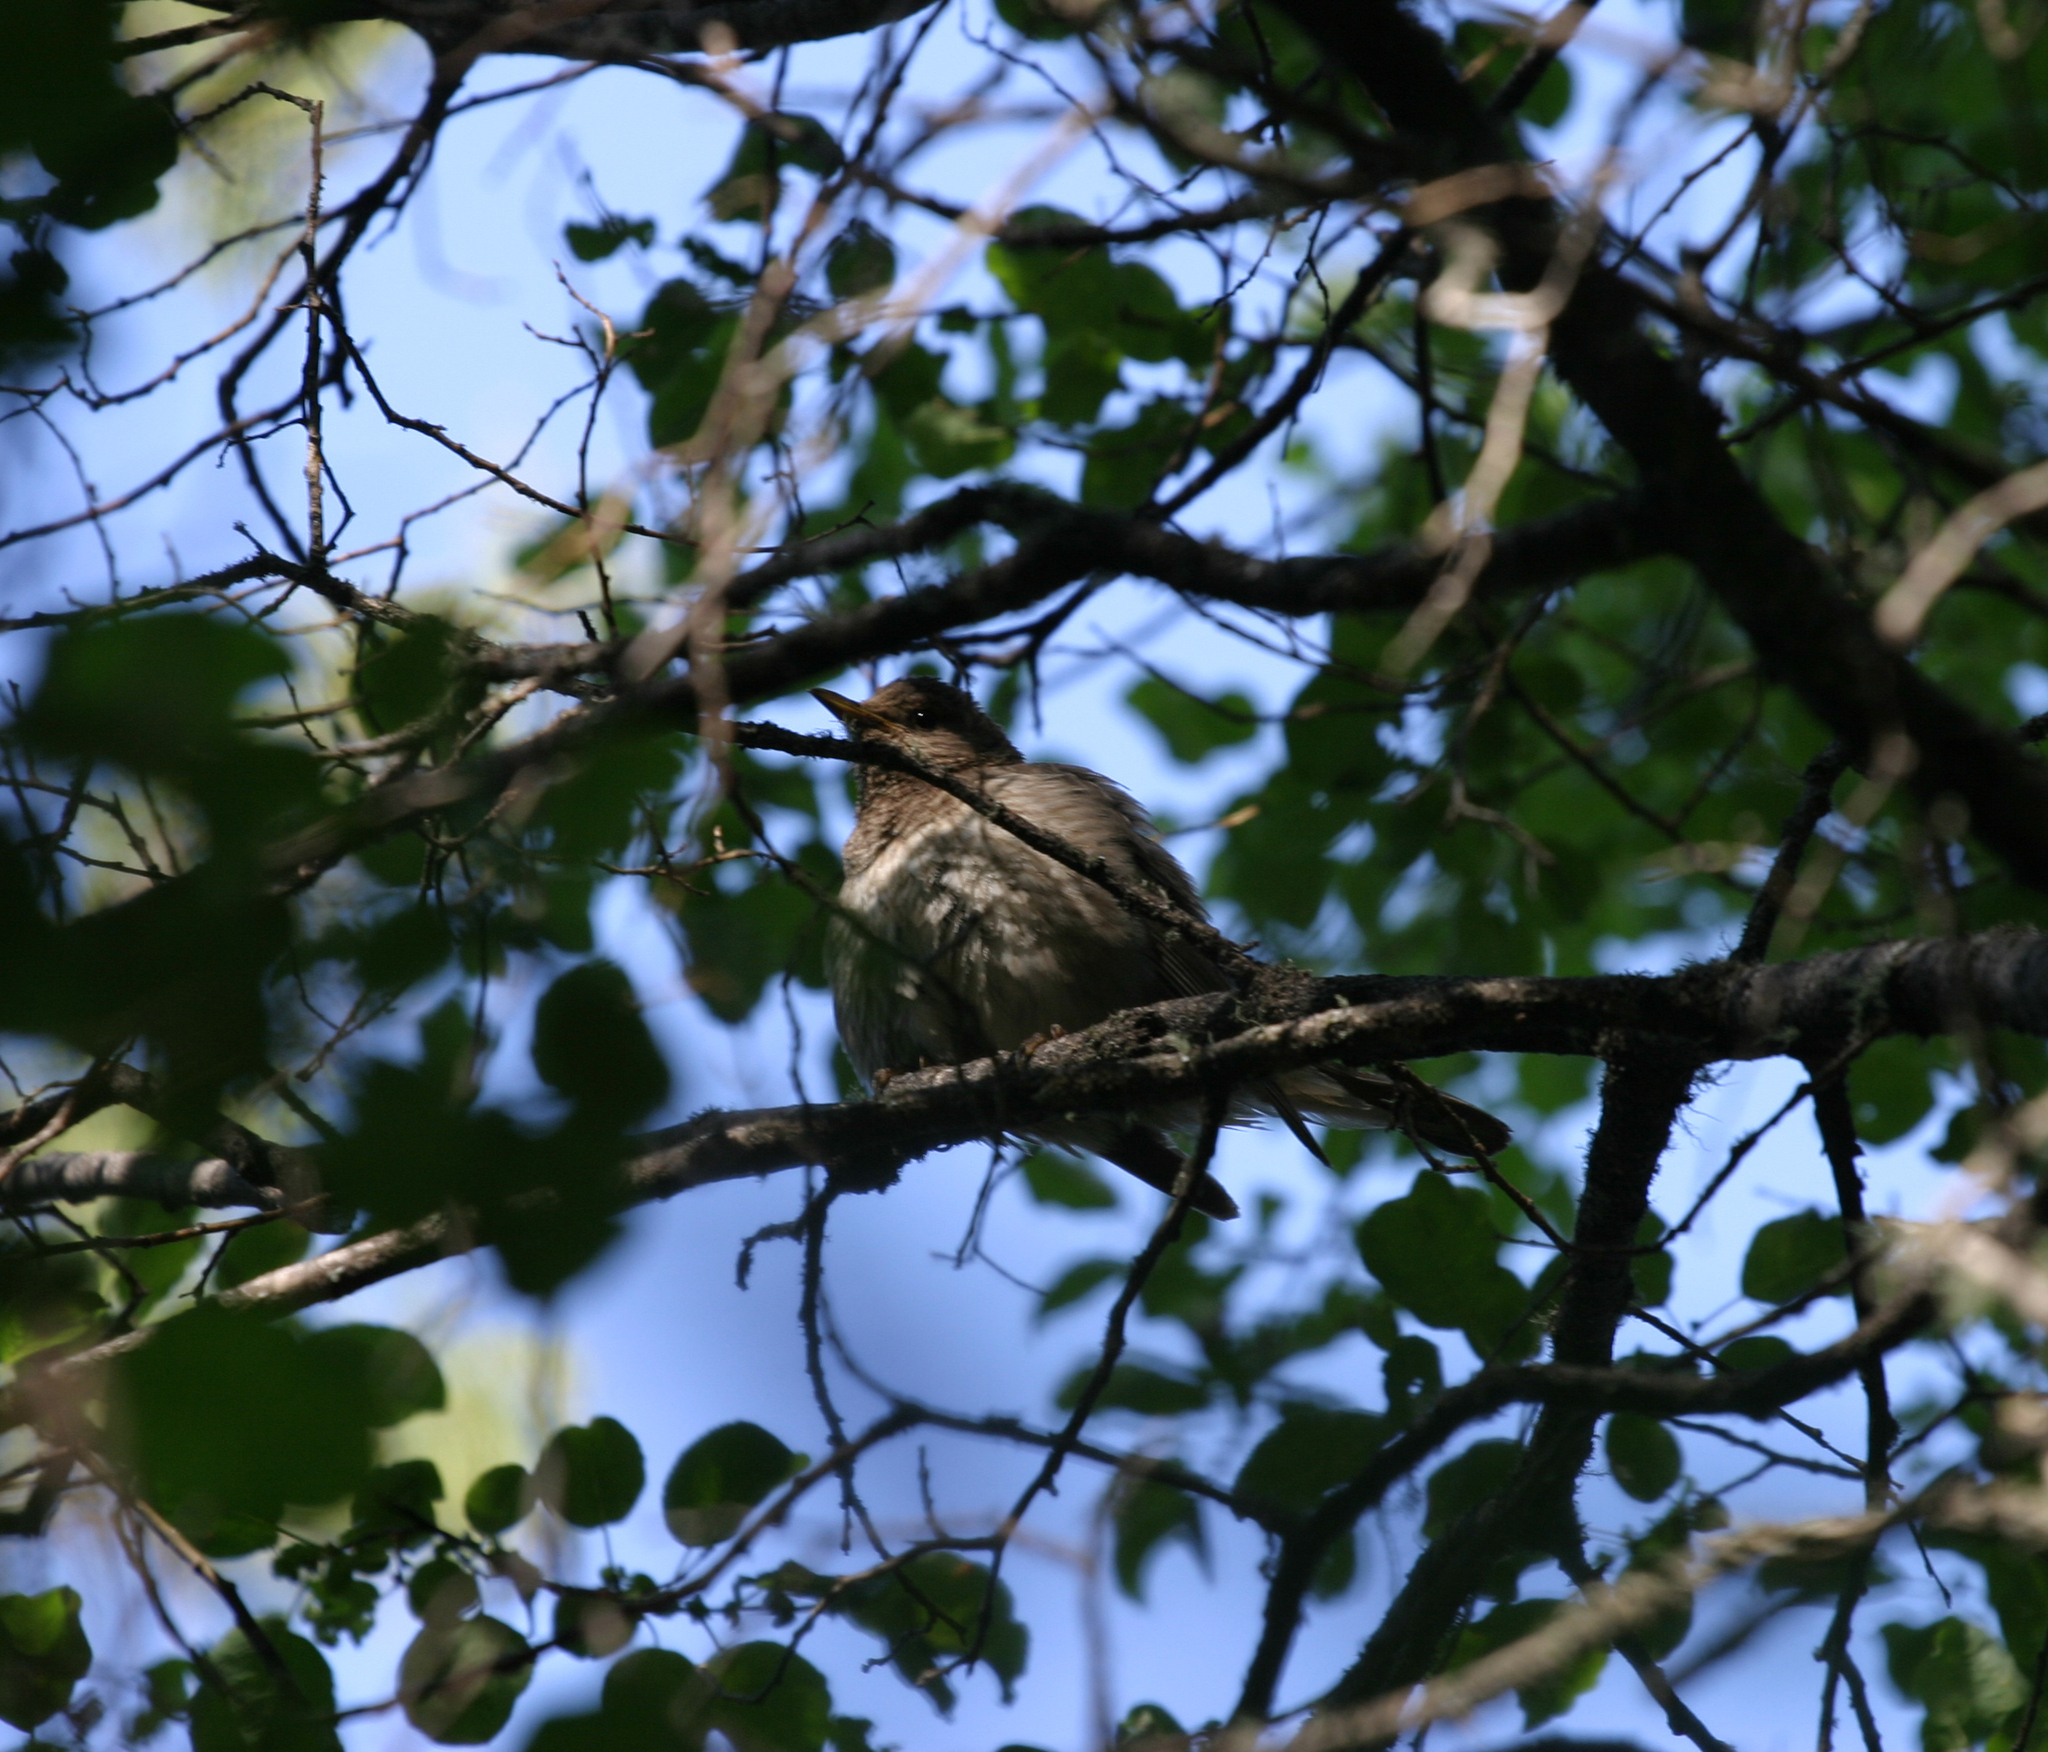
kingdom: Animalia
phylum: Chordata
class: Aves
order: Passeriformes
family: Turdidae
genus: Turdus
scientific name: Turdus atrogularis
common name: Black-throated thrush
